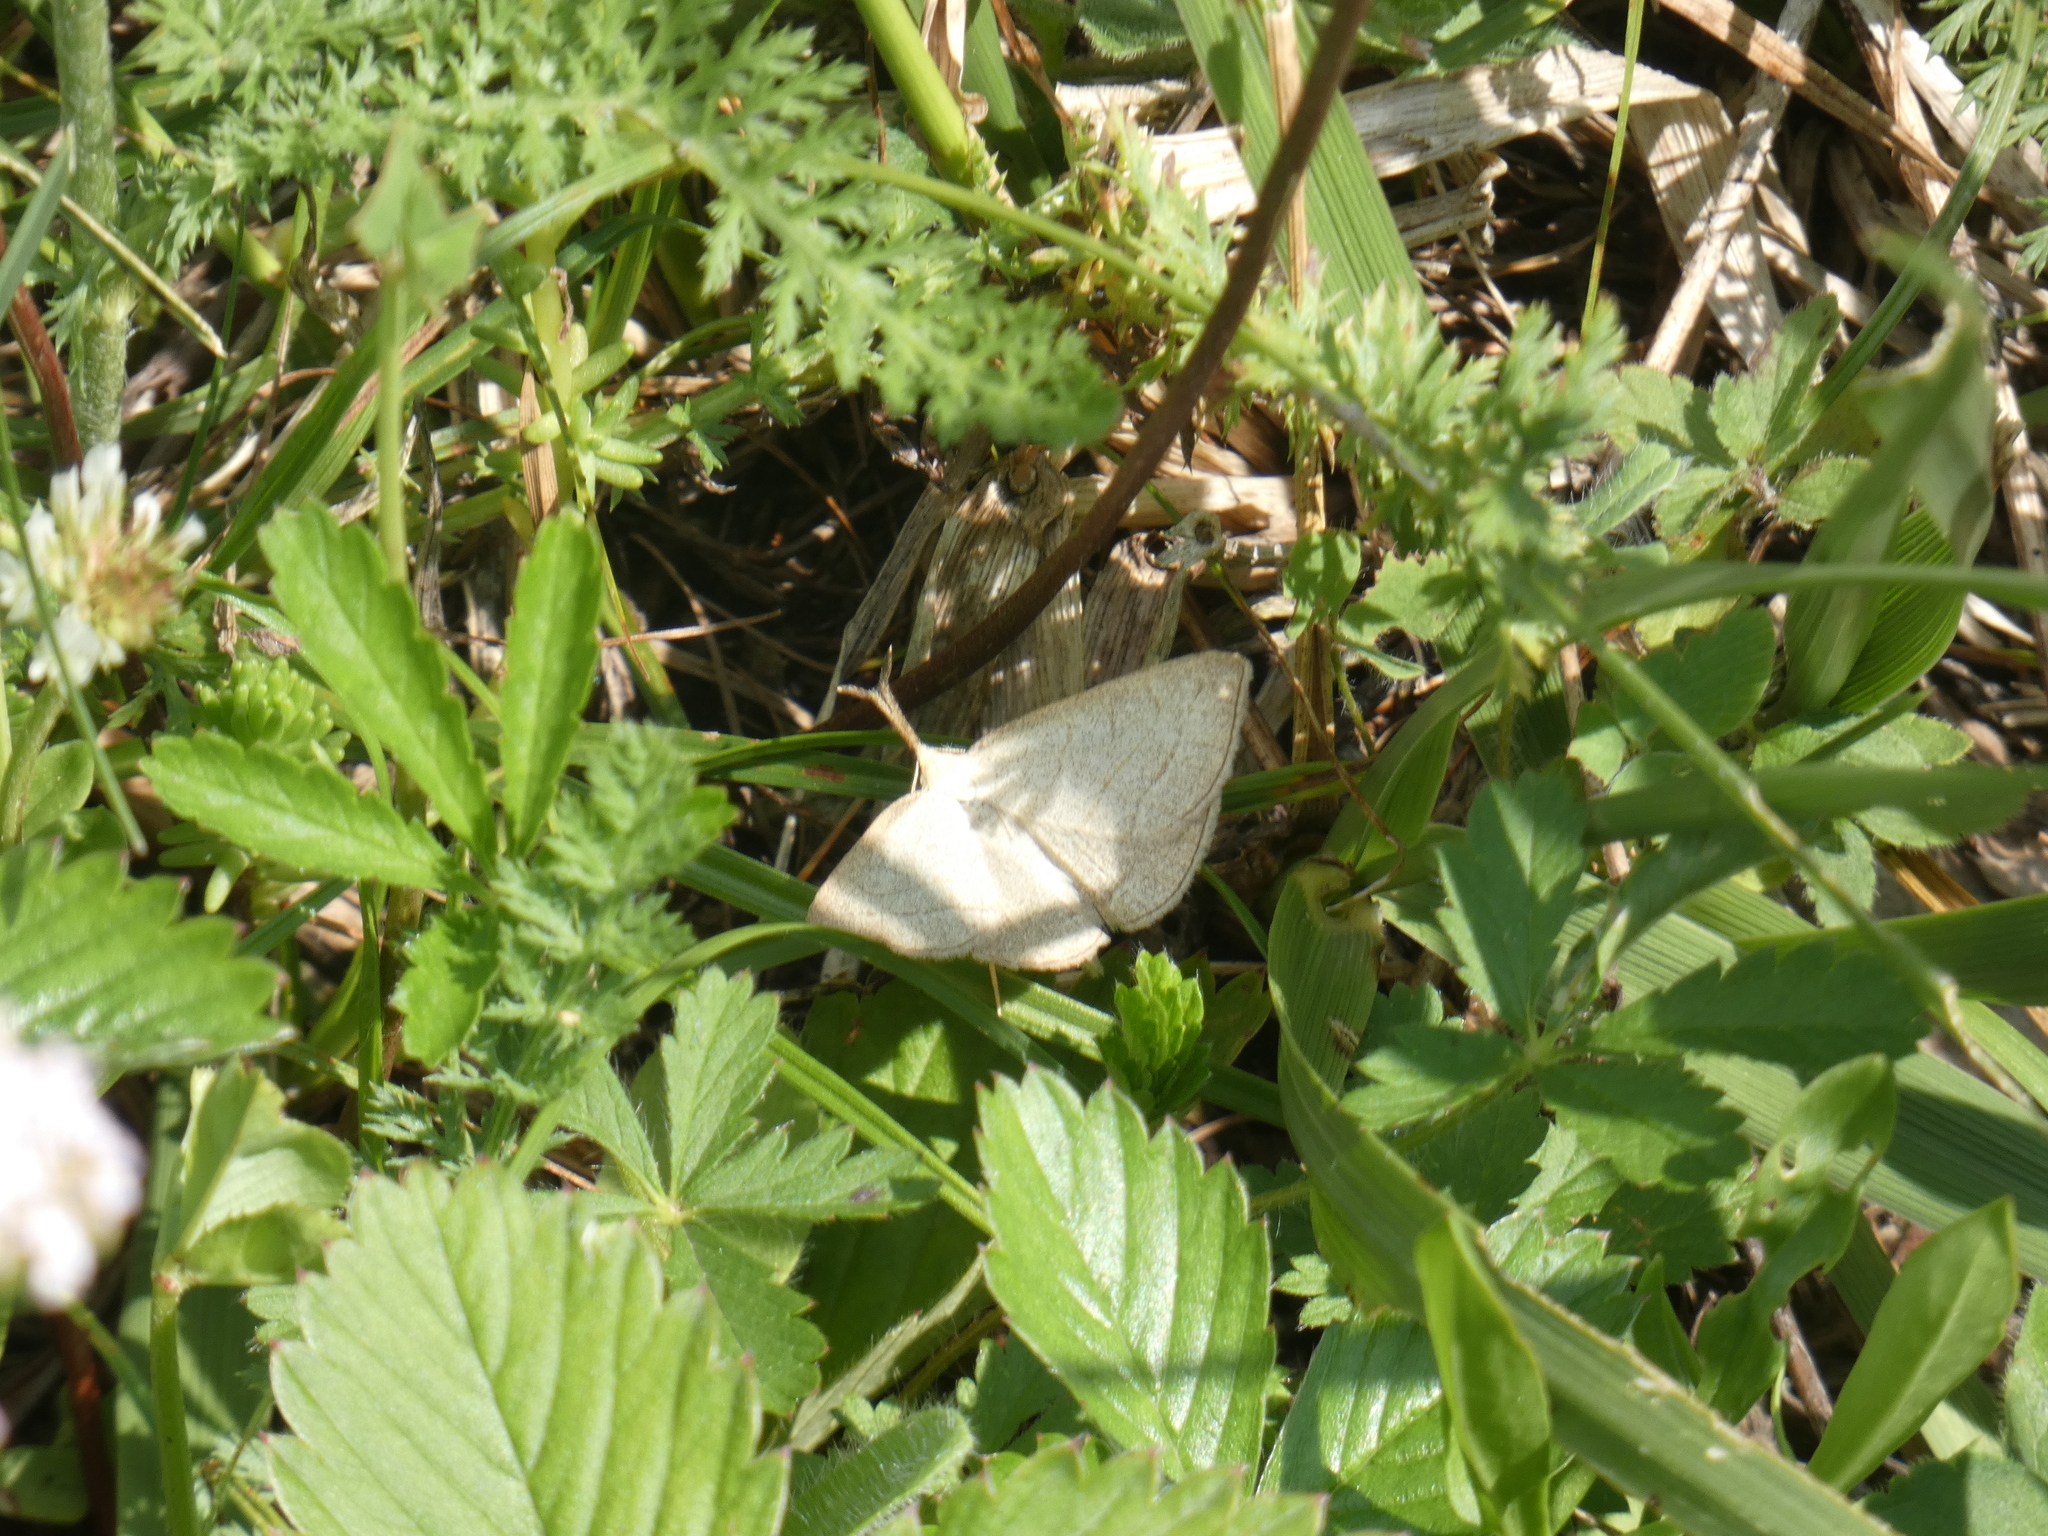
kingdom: Animalia
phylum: Arthropoda
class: Insecta
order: Lepidoptera
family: Erebidae
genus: Polypogon
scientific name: Polypogon tentacularia
